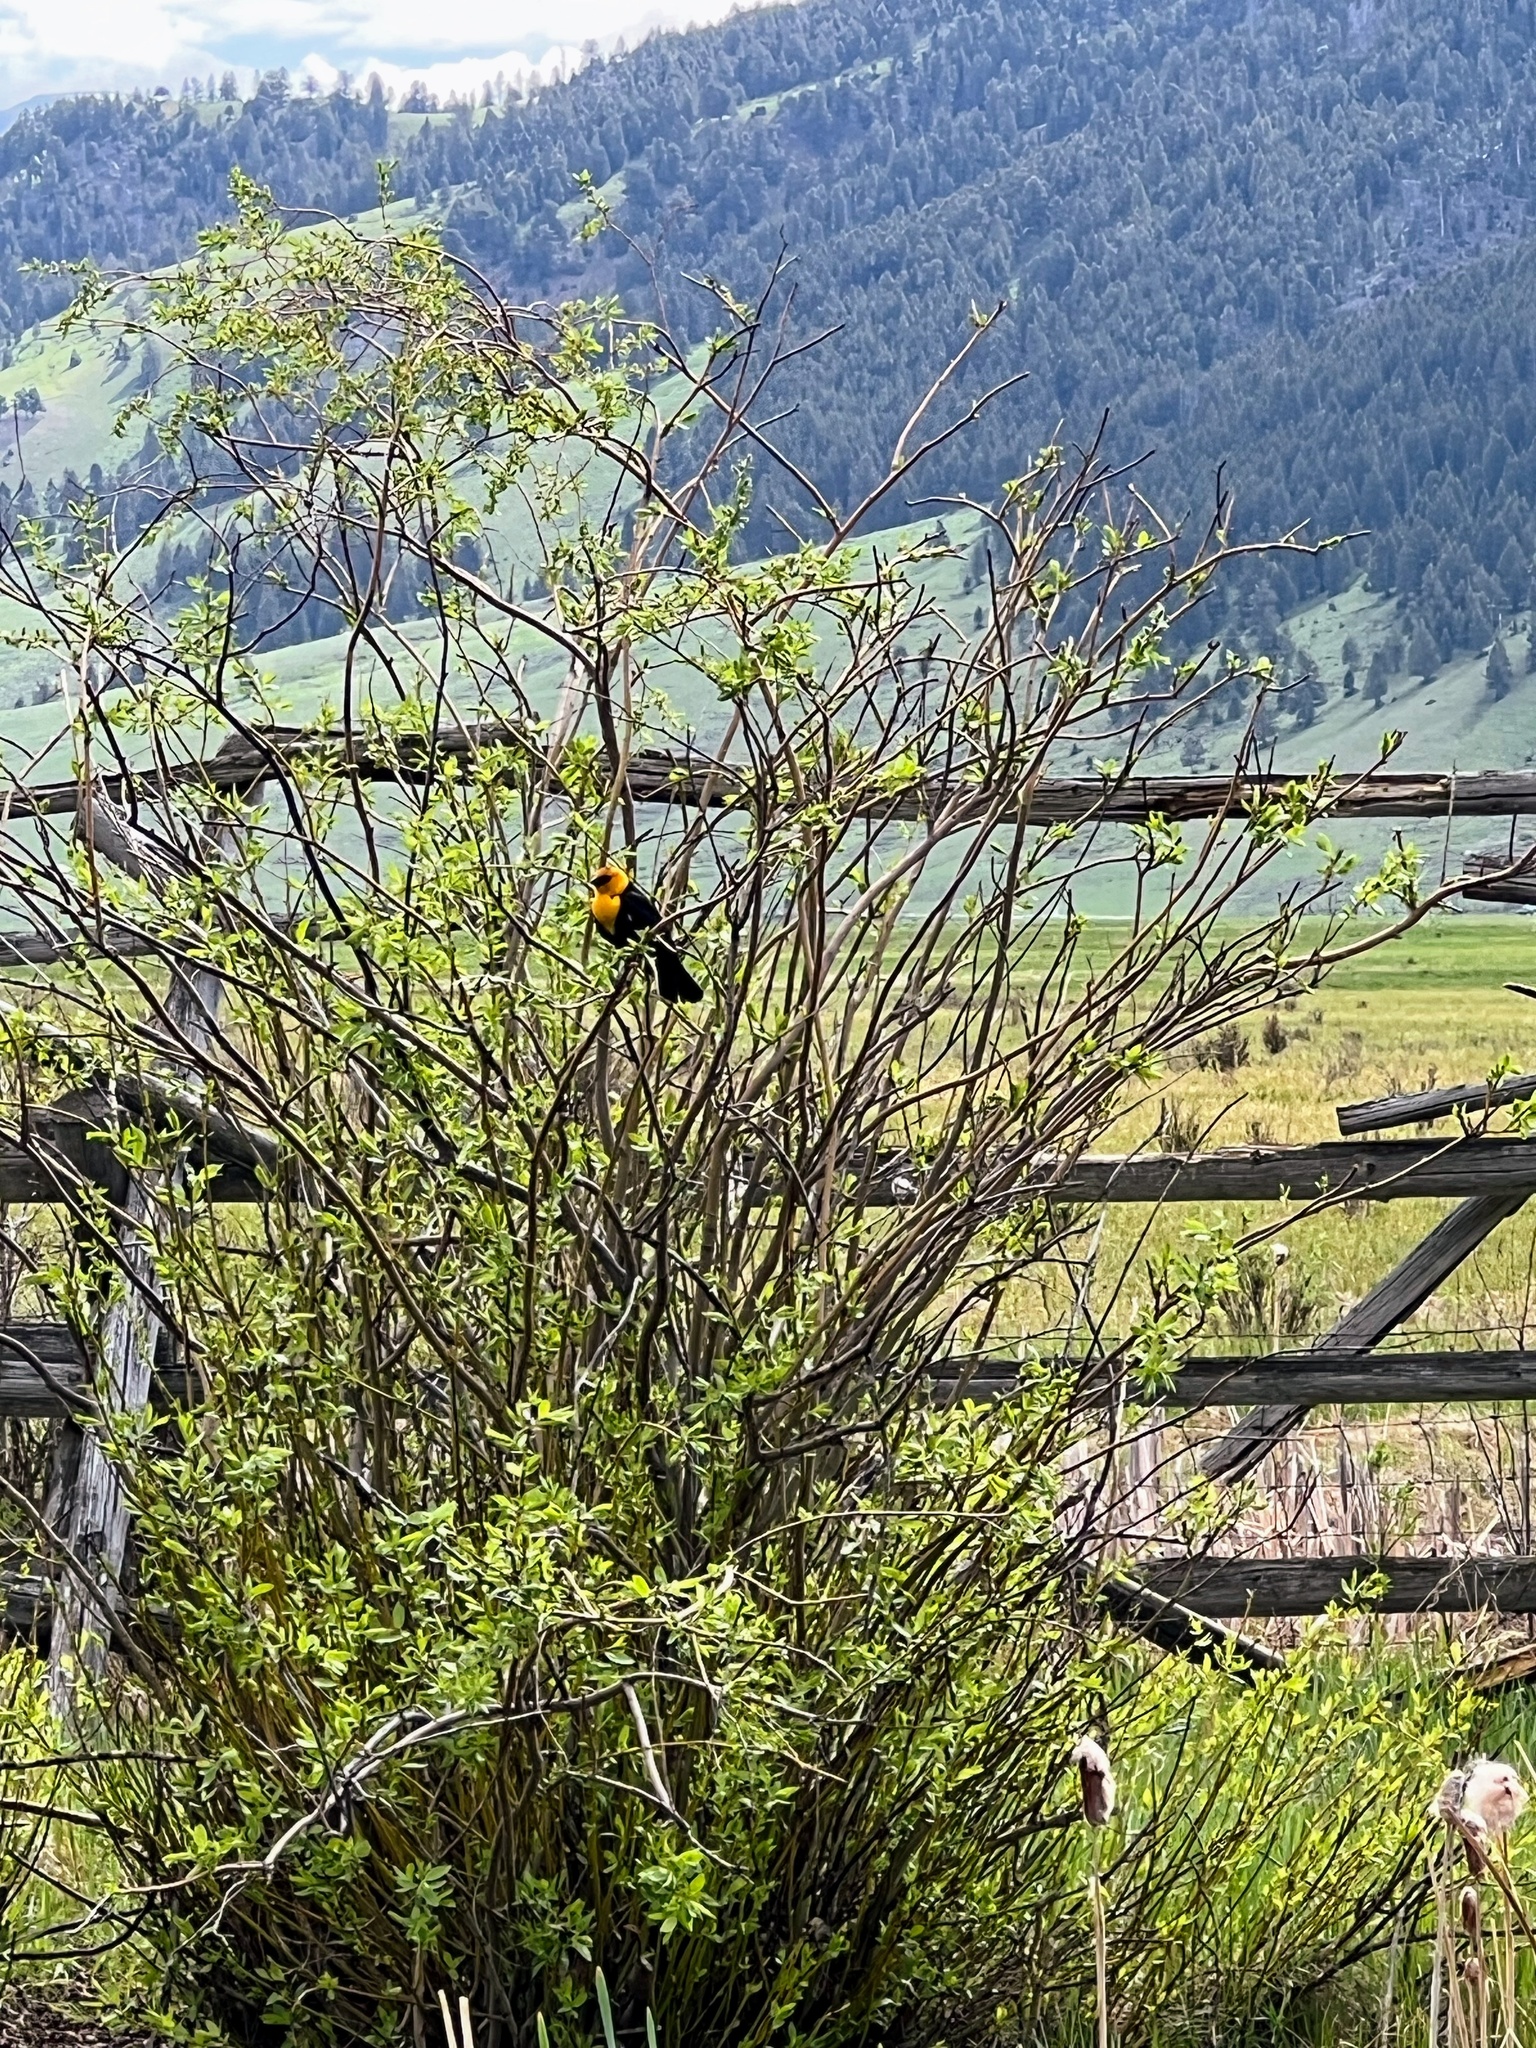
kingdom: Animalia
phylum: Chordata
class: Aves
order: Passeriformes
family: Icteridae
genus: Xanthocephalus
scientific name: Xanthocephalus xanthocephalus
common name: Yellow-headed blackbird
